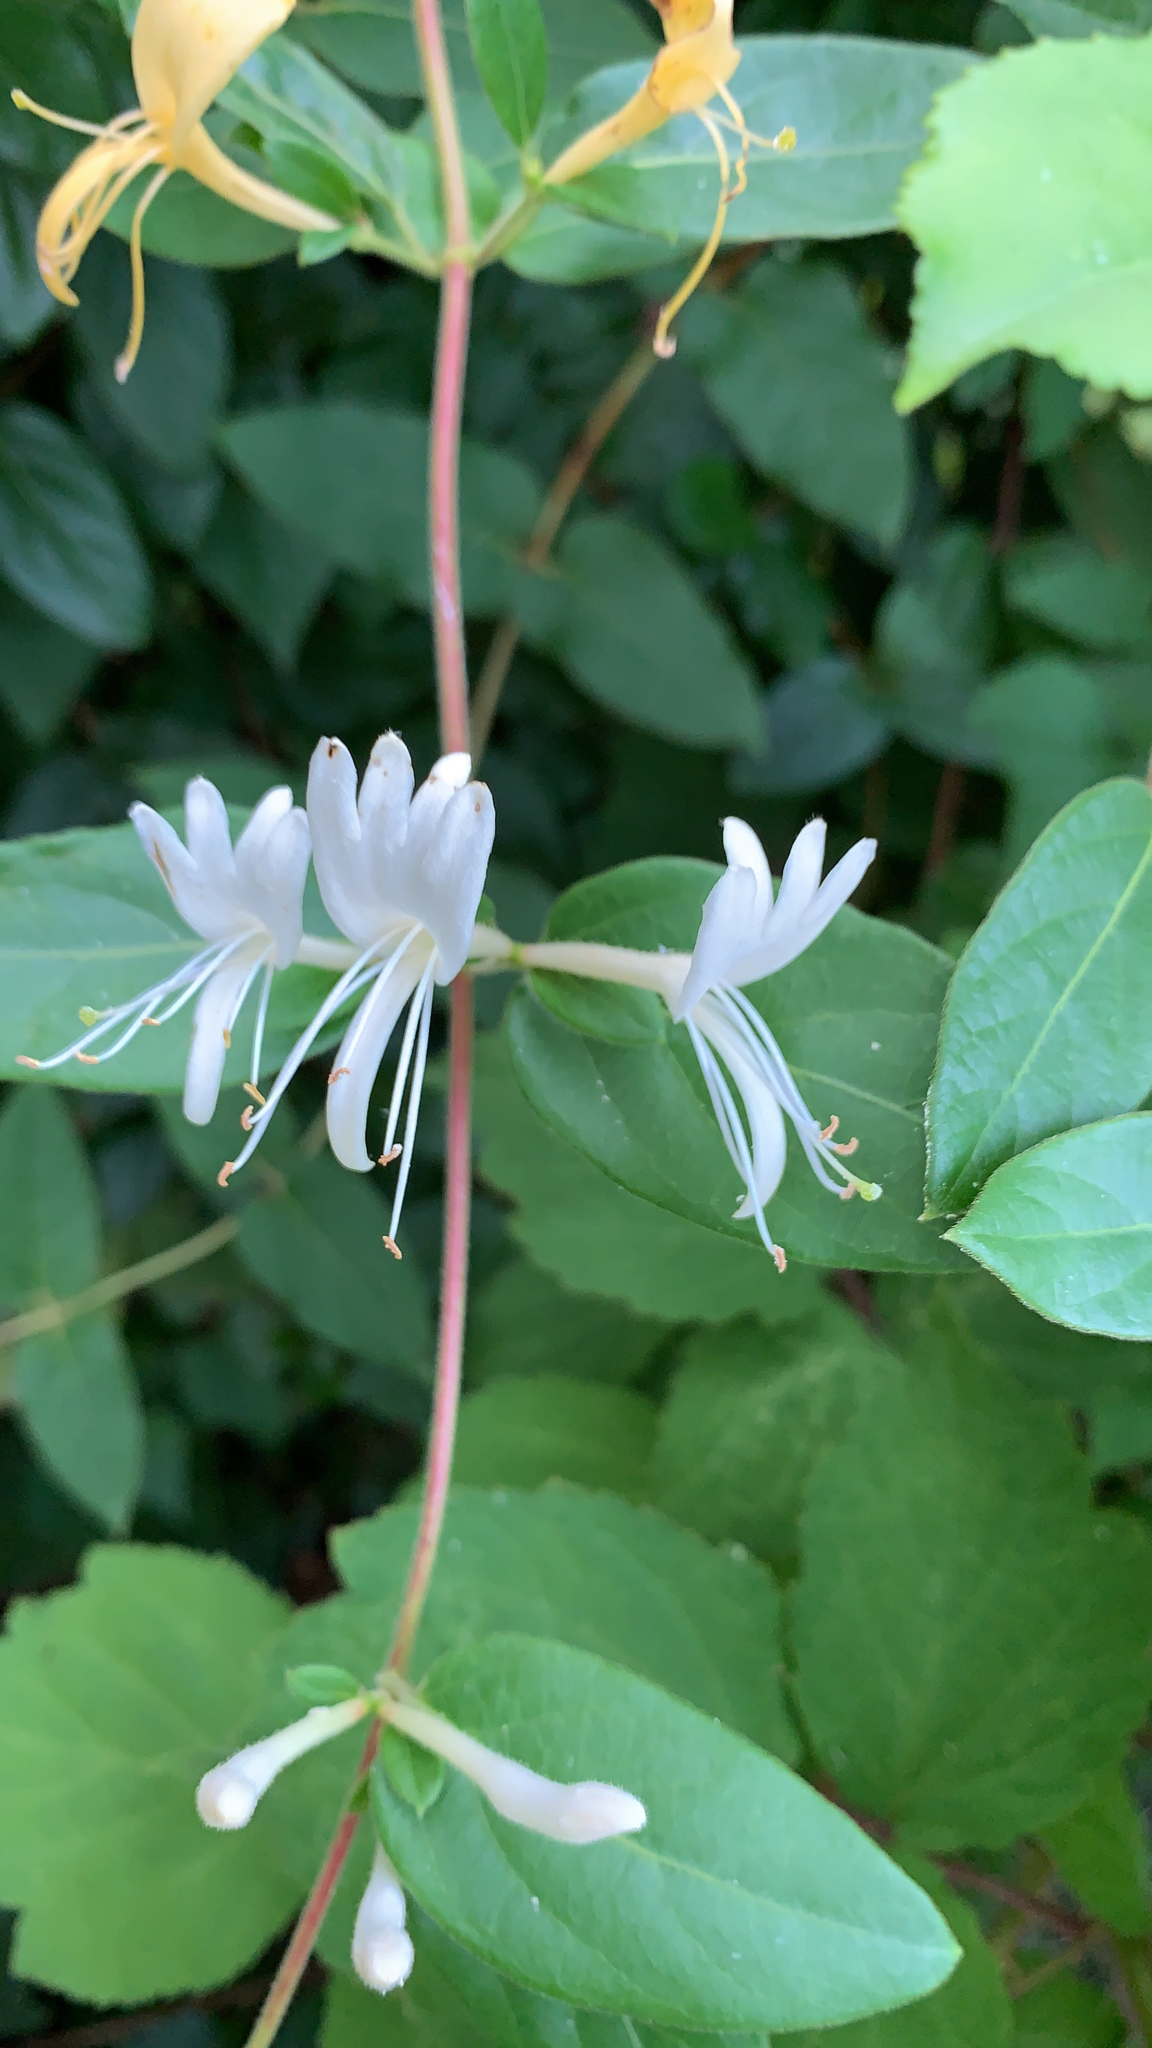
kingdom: Plantae
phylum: Tracheophyta
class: Magnoliopsida
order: Dipsacales
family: Caprifoliaceae
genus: Lonicera
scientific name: Lonicera japonica
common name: Japanese honeysuckle
